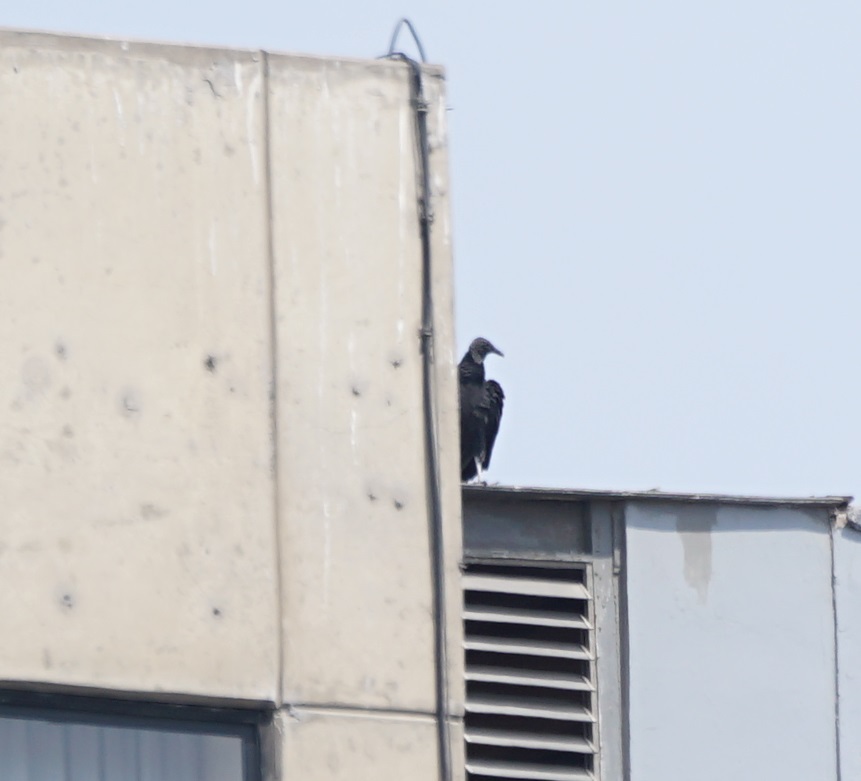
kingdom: Animalia
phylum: Chordata
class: Aves
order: Accipitriformes
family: Cathartidae
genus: Coragyps
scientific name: Coragyps atratus
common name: Black vulture
